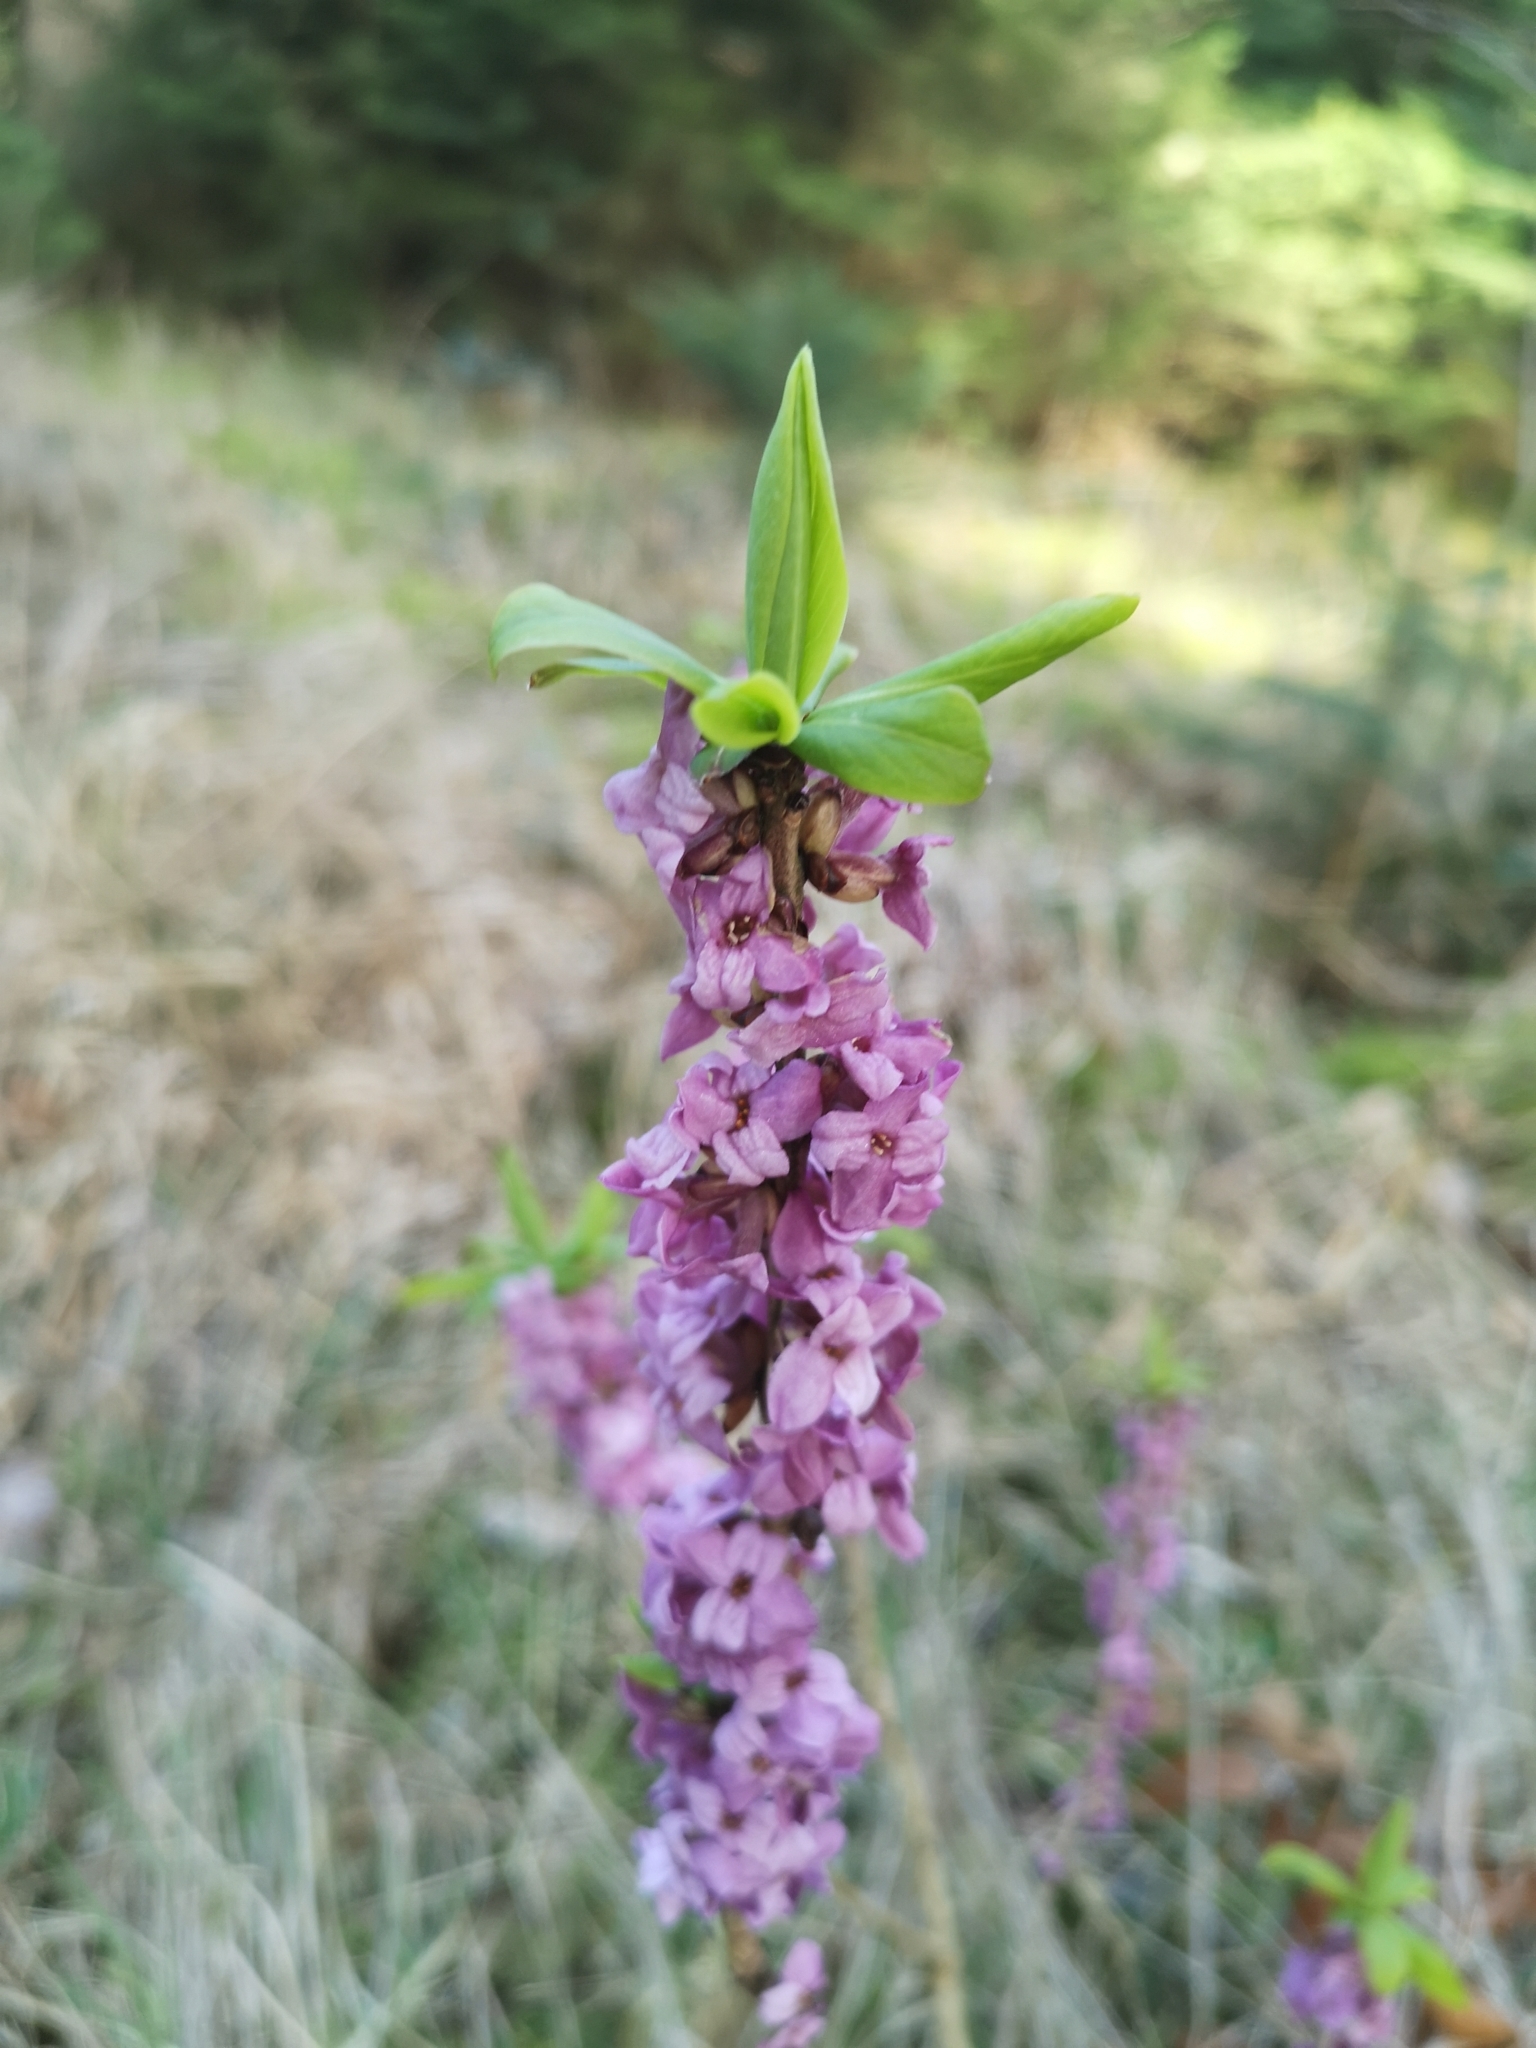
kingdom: Plantae
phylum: Tracheophyta
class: Magnoliopsida
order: Malvales
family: Thymelaeaceae
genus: Daphne
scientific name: Daphne mezereum
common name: Mezereon
